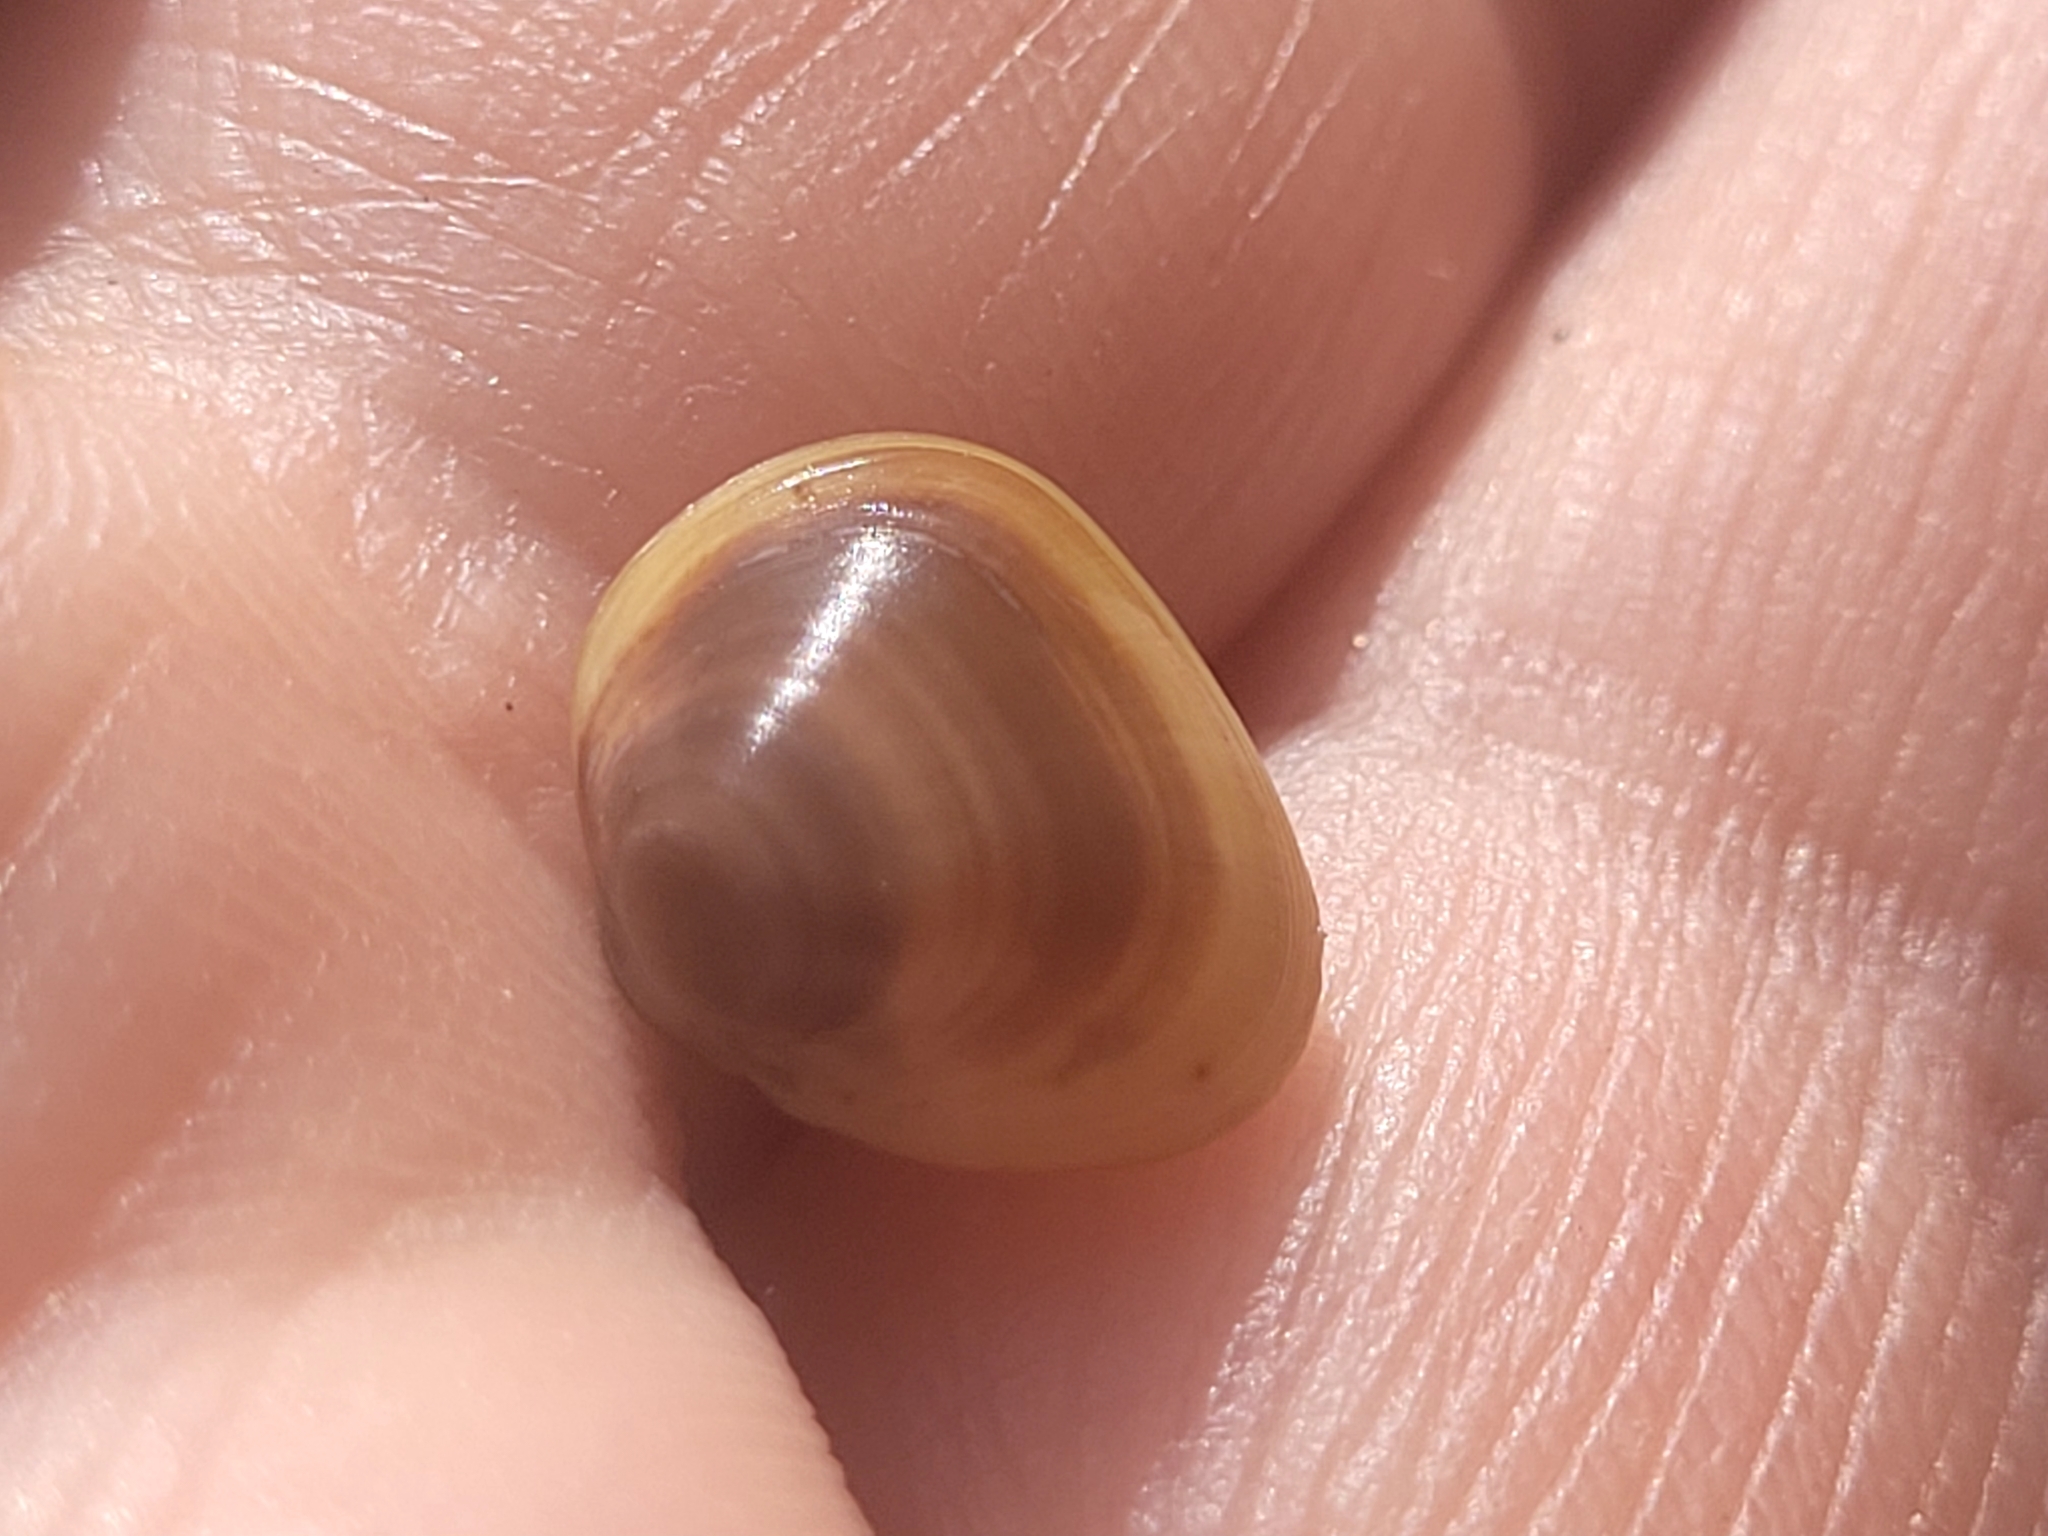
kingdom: Animalia
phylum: Mollusca
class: Bivalvia
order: Sphaeriida
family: Sphaeriidae
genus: Sphaerium
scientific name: Sphaerium rhomboideum
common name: Rhomboid fingernailclam
